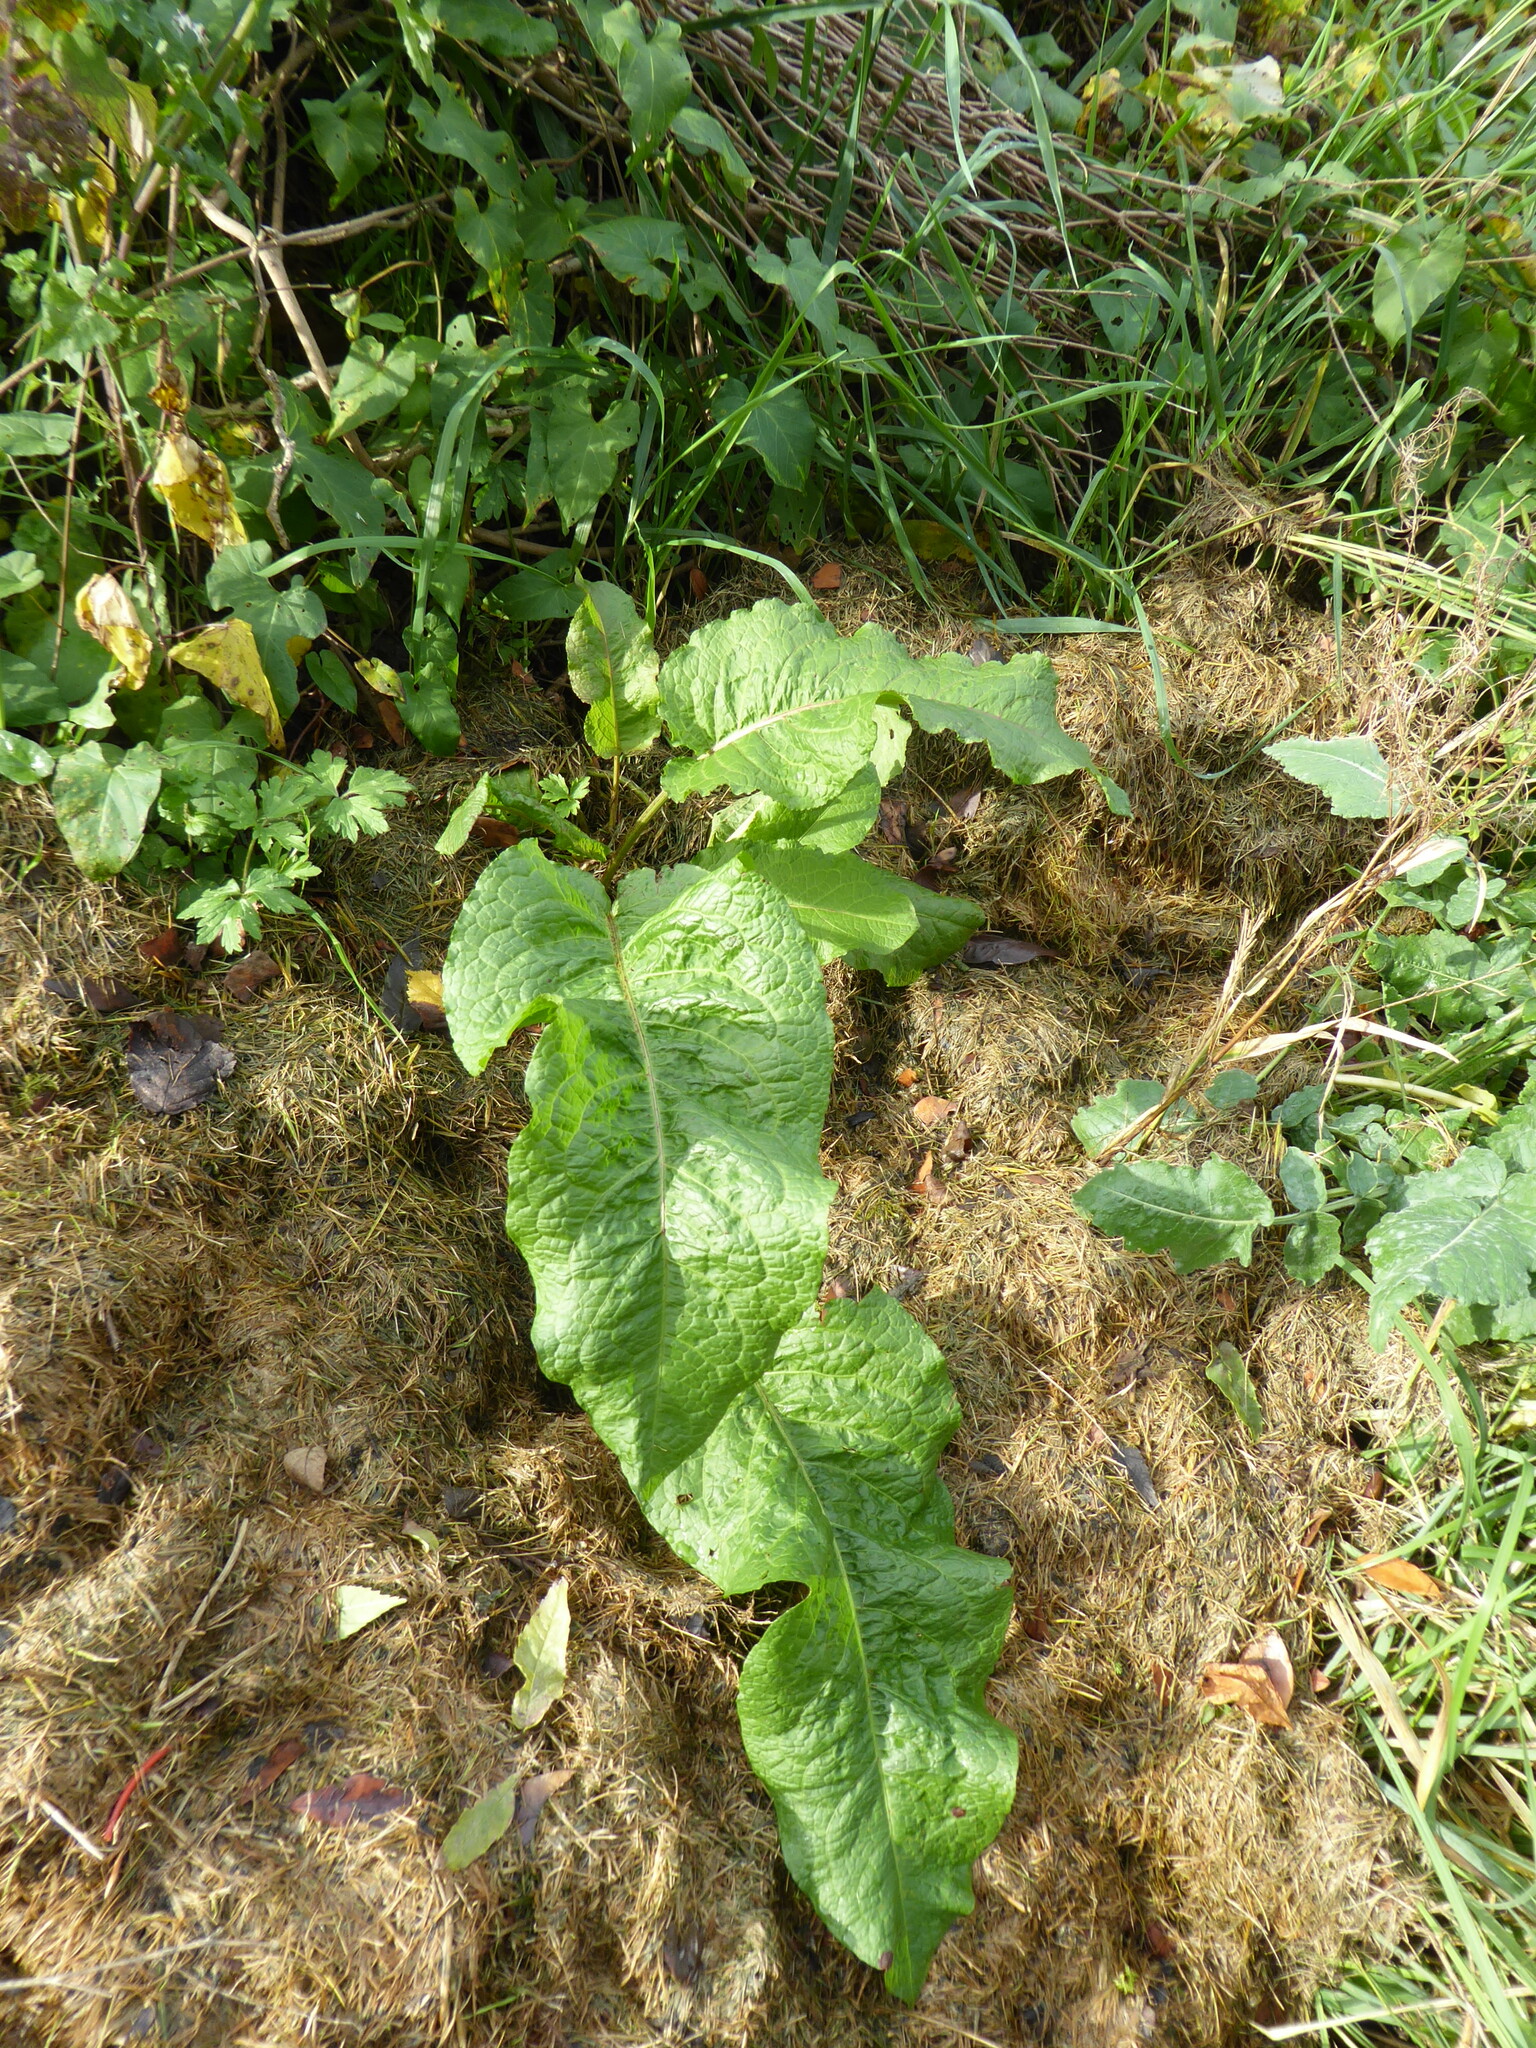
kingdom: Plantae
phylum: Tracheophyta
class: Magnoliopsida
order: Caryophyllales
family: Polygonaceae
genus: Rumex
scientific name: Rumex obtusifolius
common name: Bitter dock
